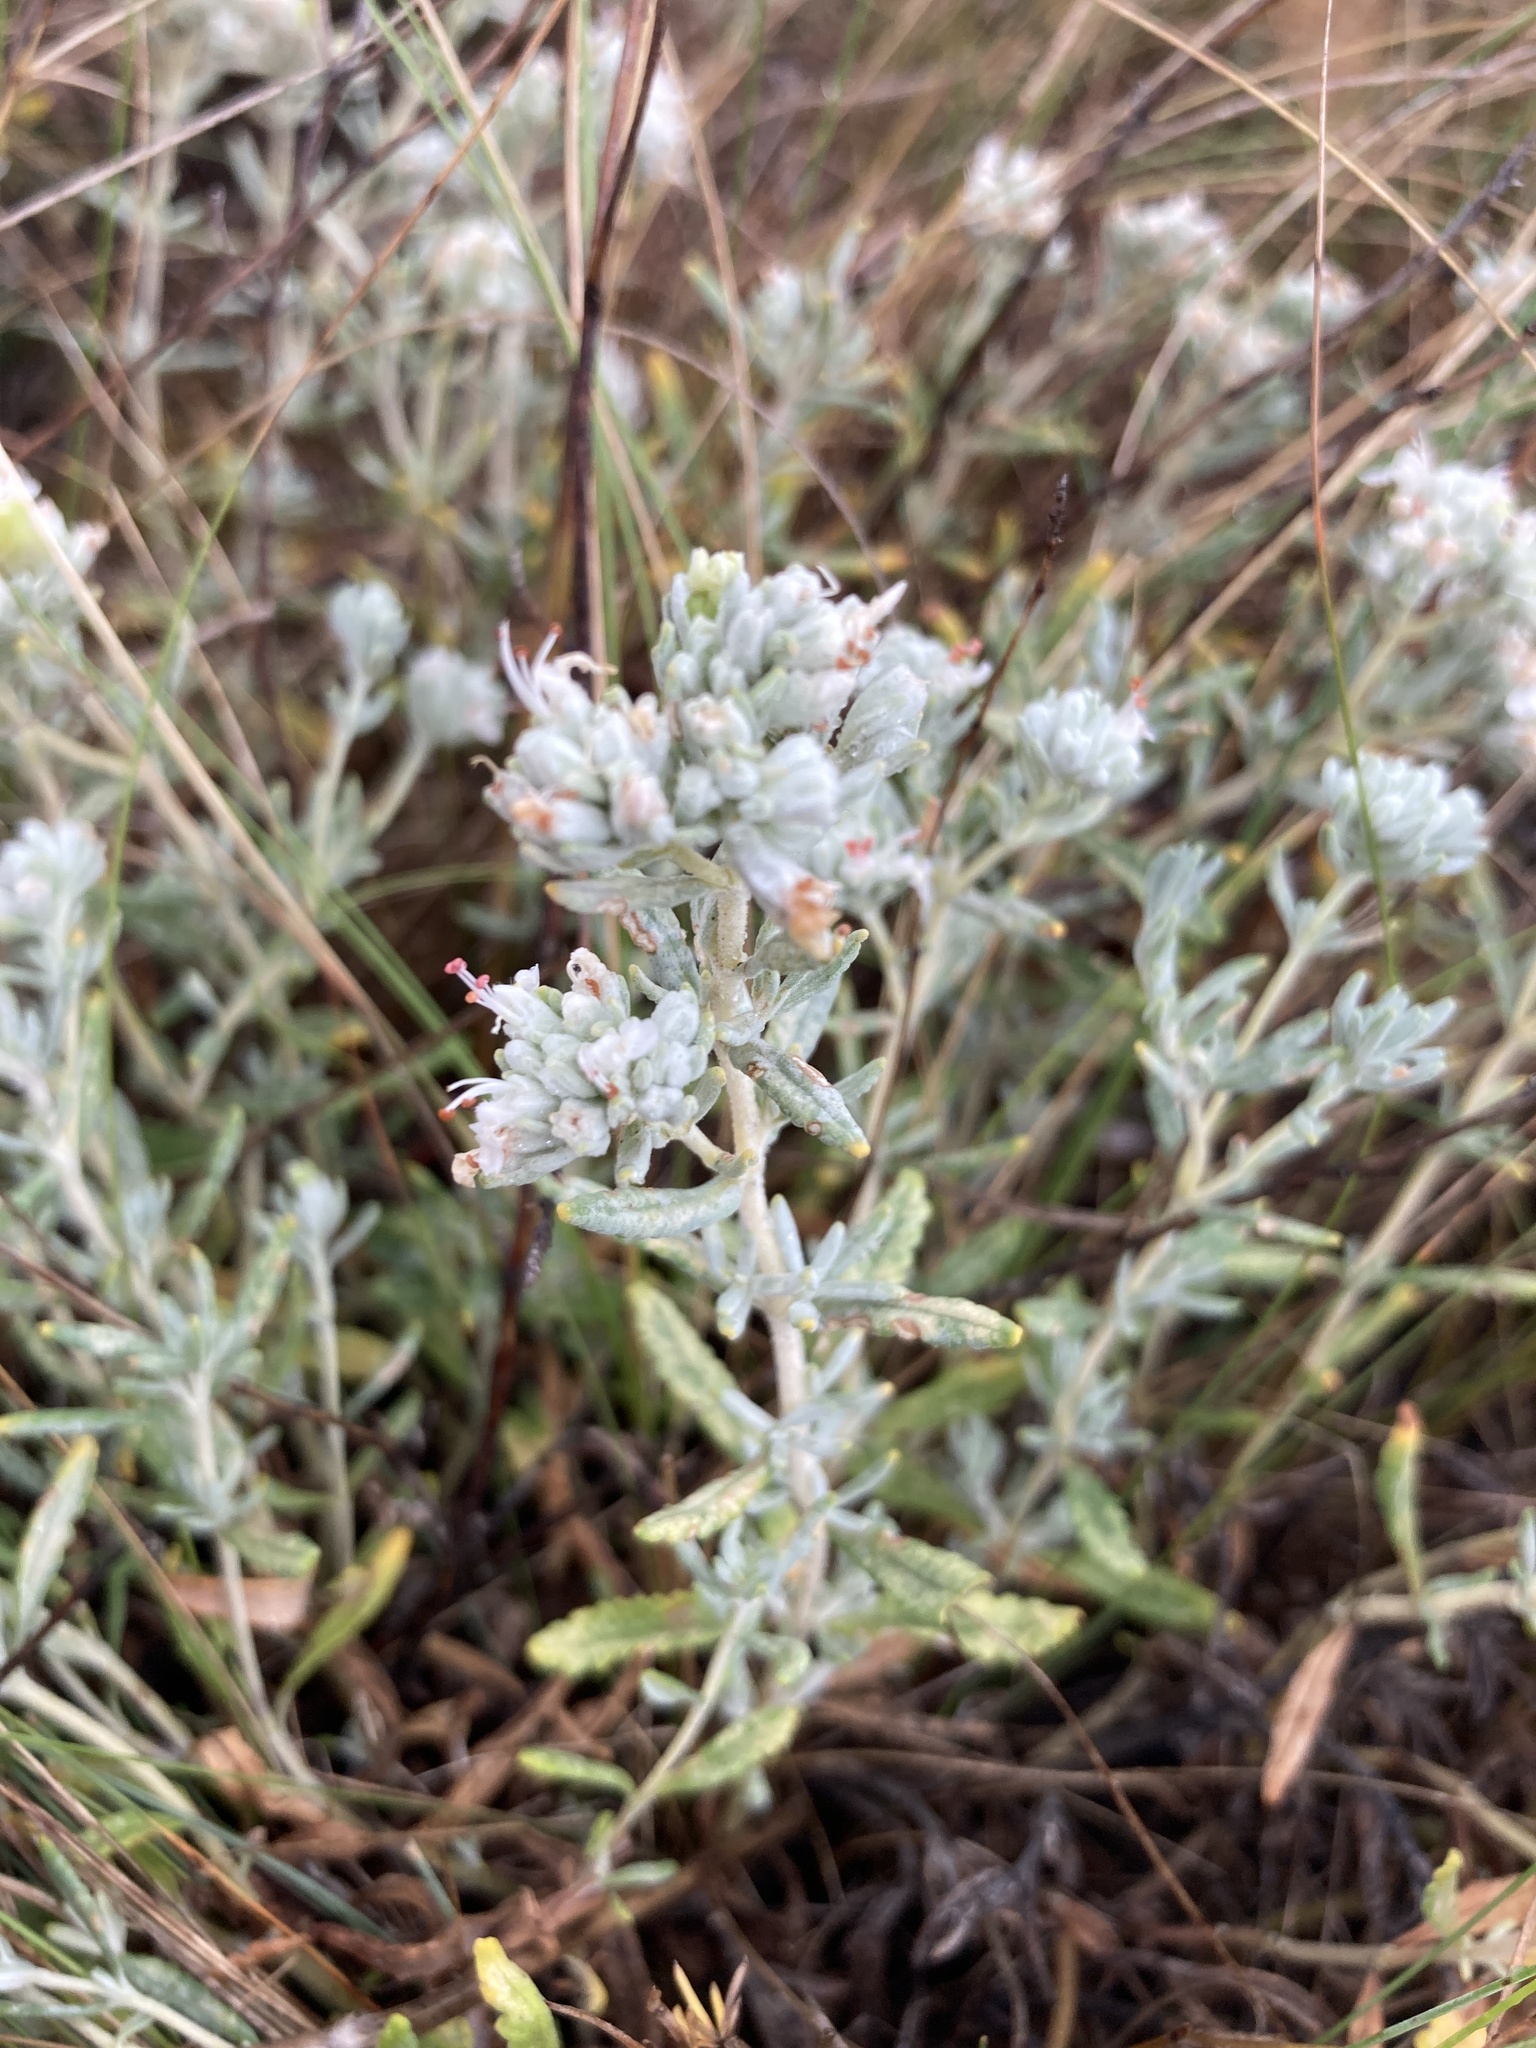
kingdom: Plantae
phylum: Tracheophyta
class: Magnoliopsida
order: Lamiales
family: Lamiaceae
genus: Teucrium
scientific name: Teucrium polium
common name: Poley
